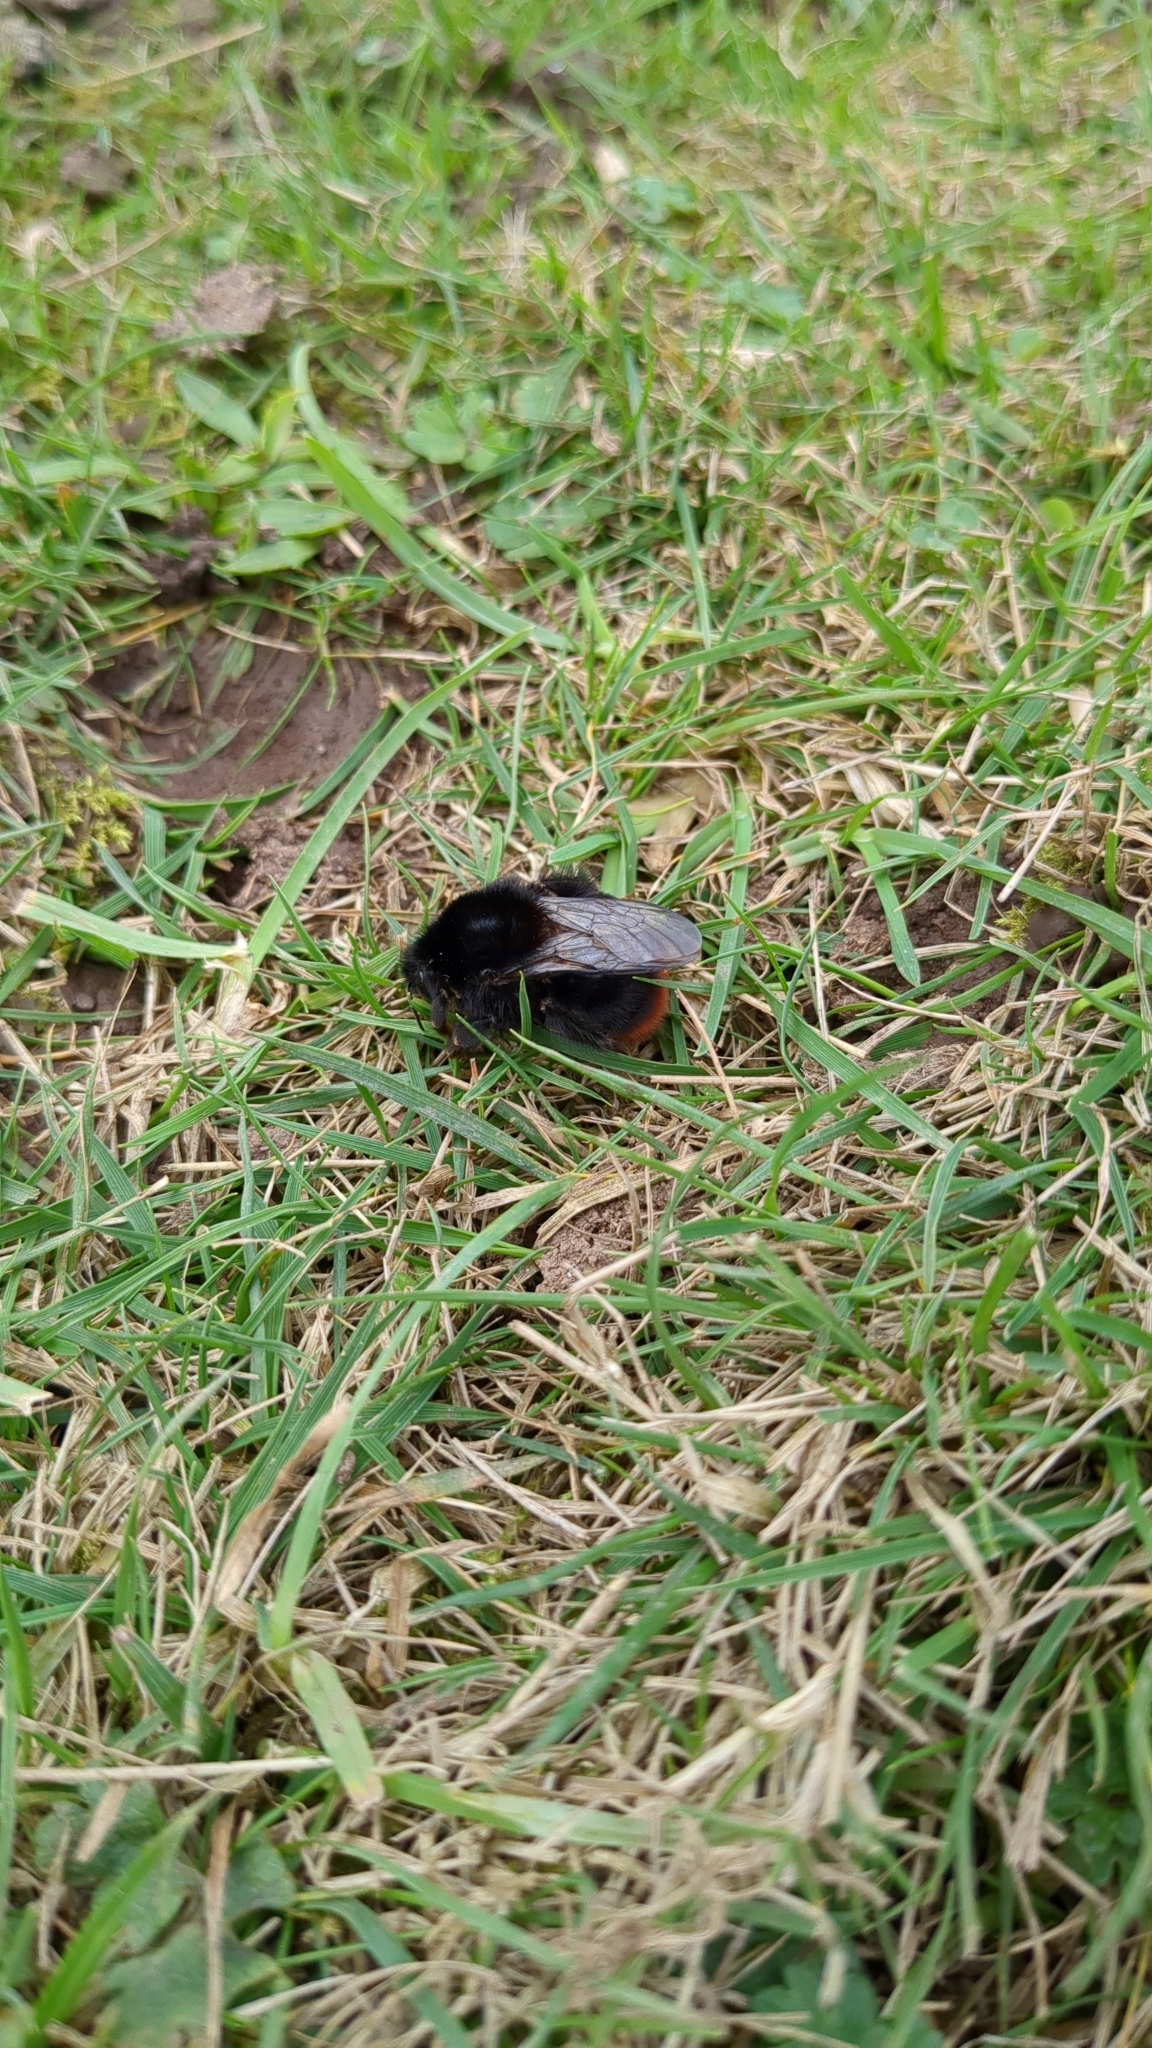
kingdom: Animalia
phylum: Arthropoda
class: Insecta
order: Hymenoptera
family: Apidae
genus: Bombus
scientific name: Bombus lapidarius
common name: Large red-tailed humble-bee
